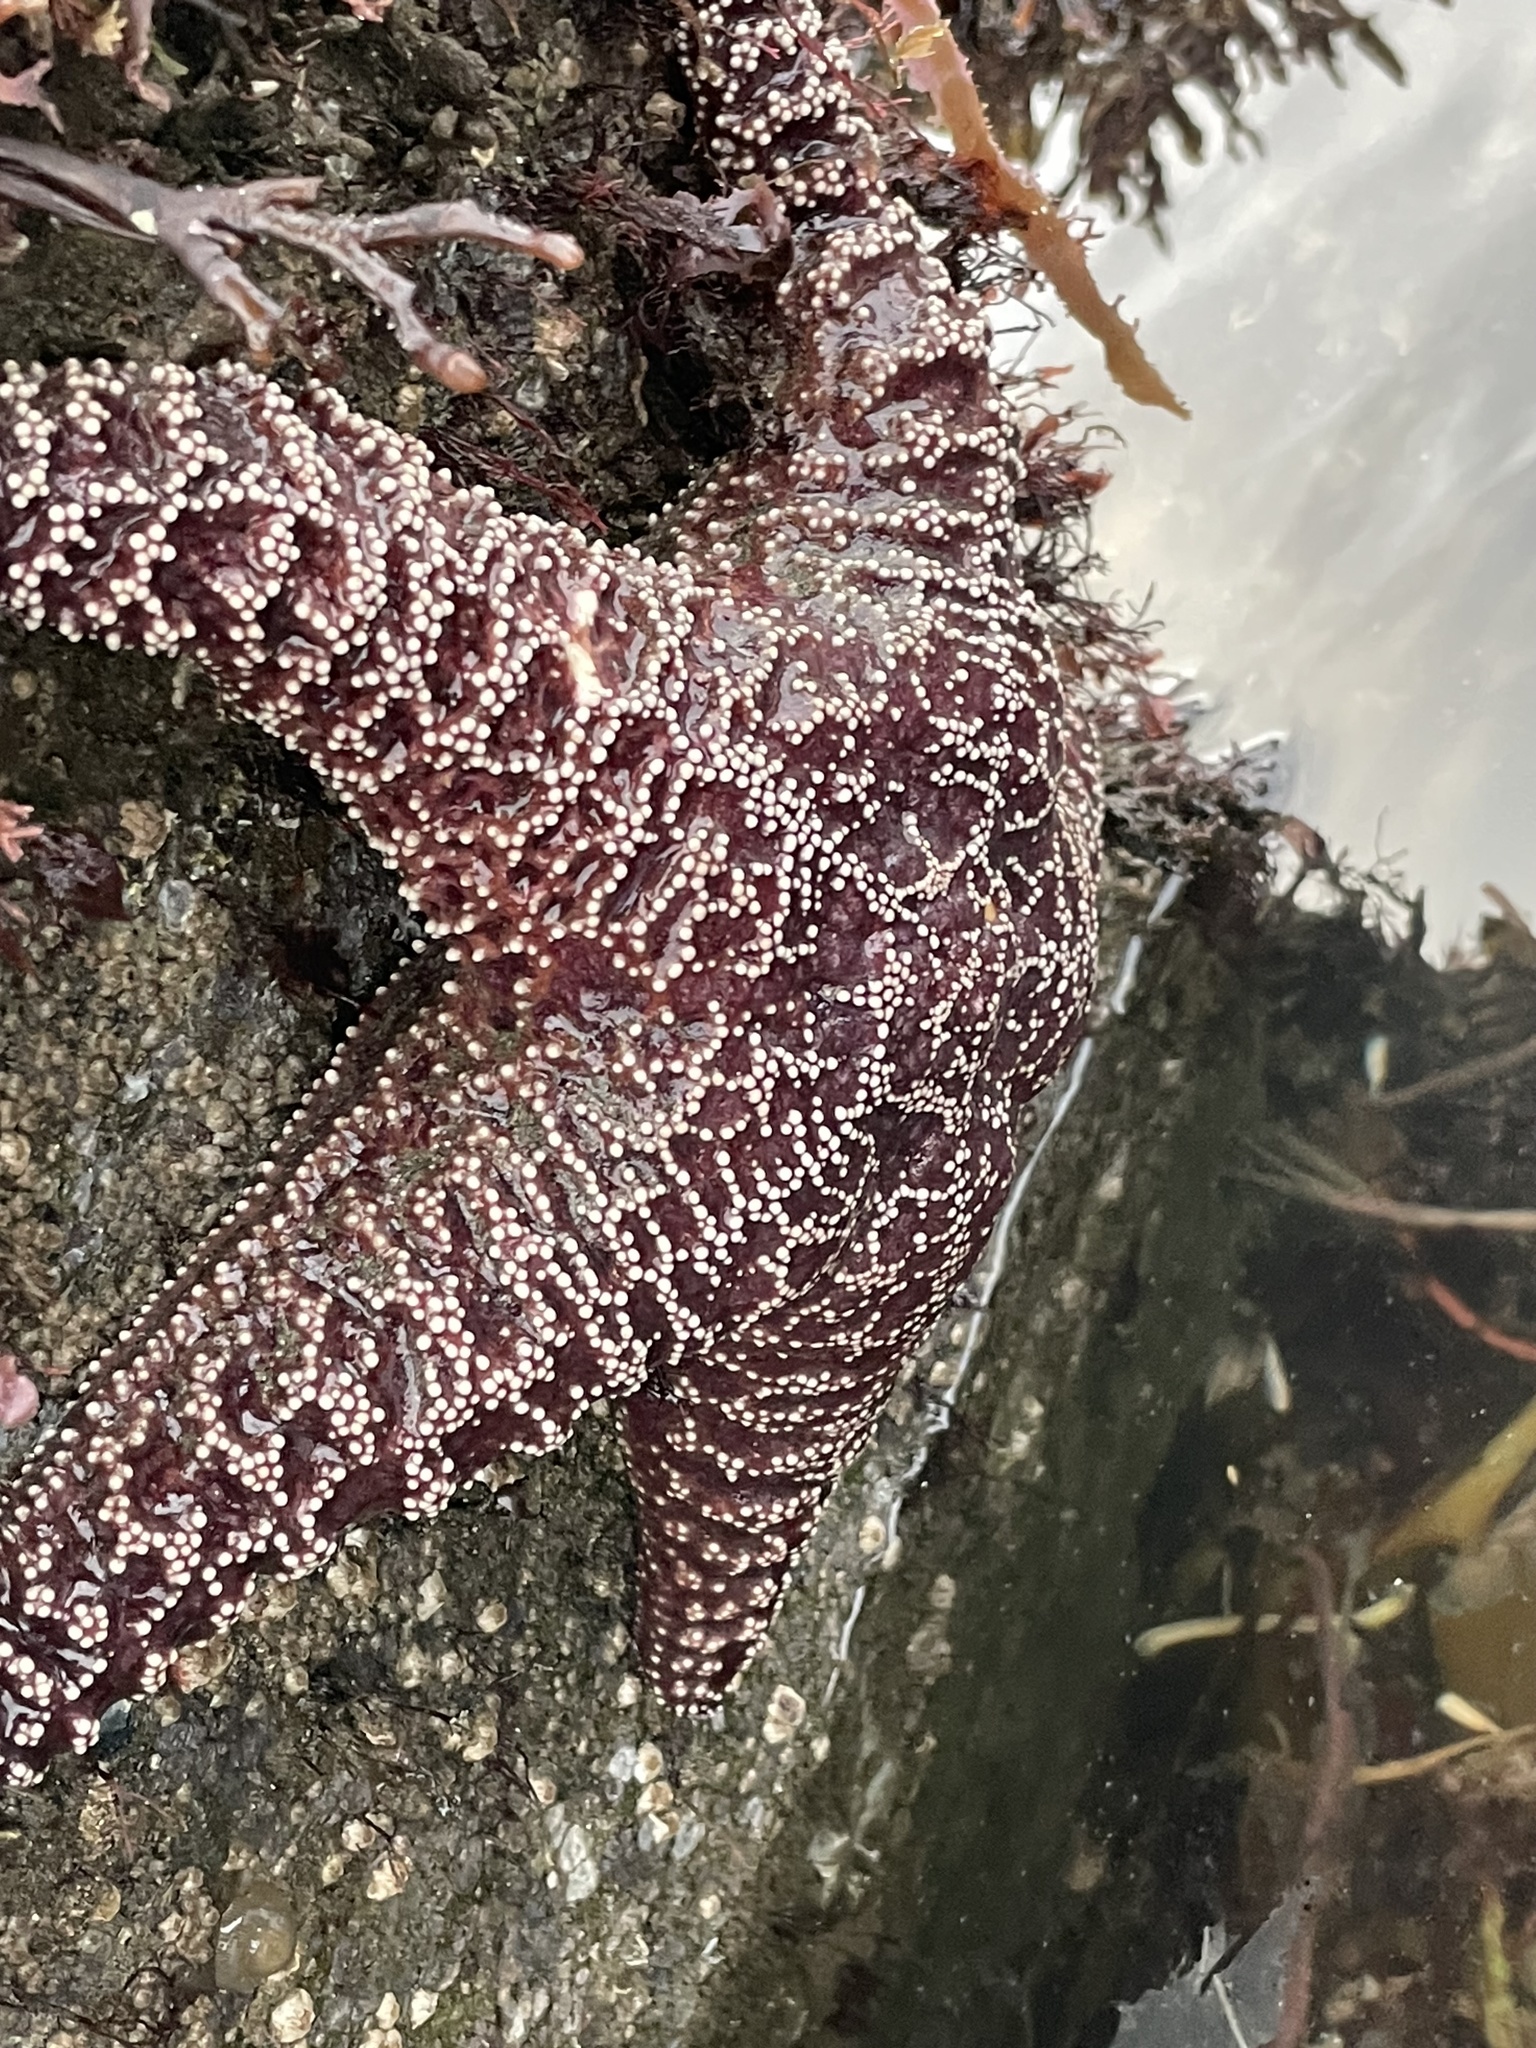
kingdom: Animalia
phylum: Echinodermata
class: Asteroidea
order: Forcipulatida
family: Asteriidae
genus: Pisaster
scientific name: Pisaster ochraceus
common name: Ochre stars
